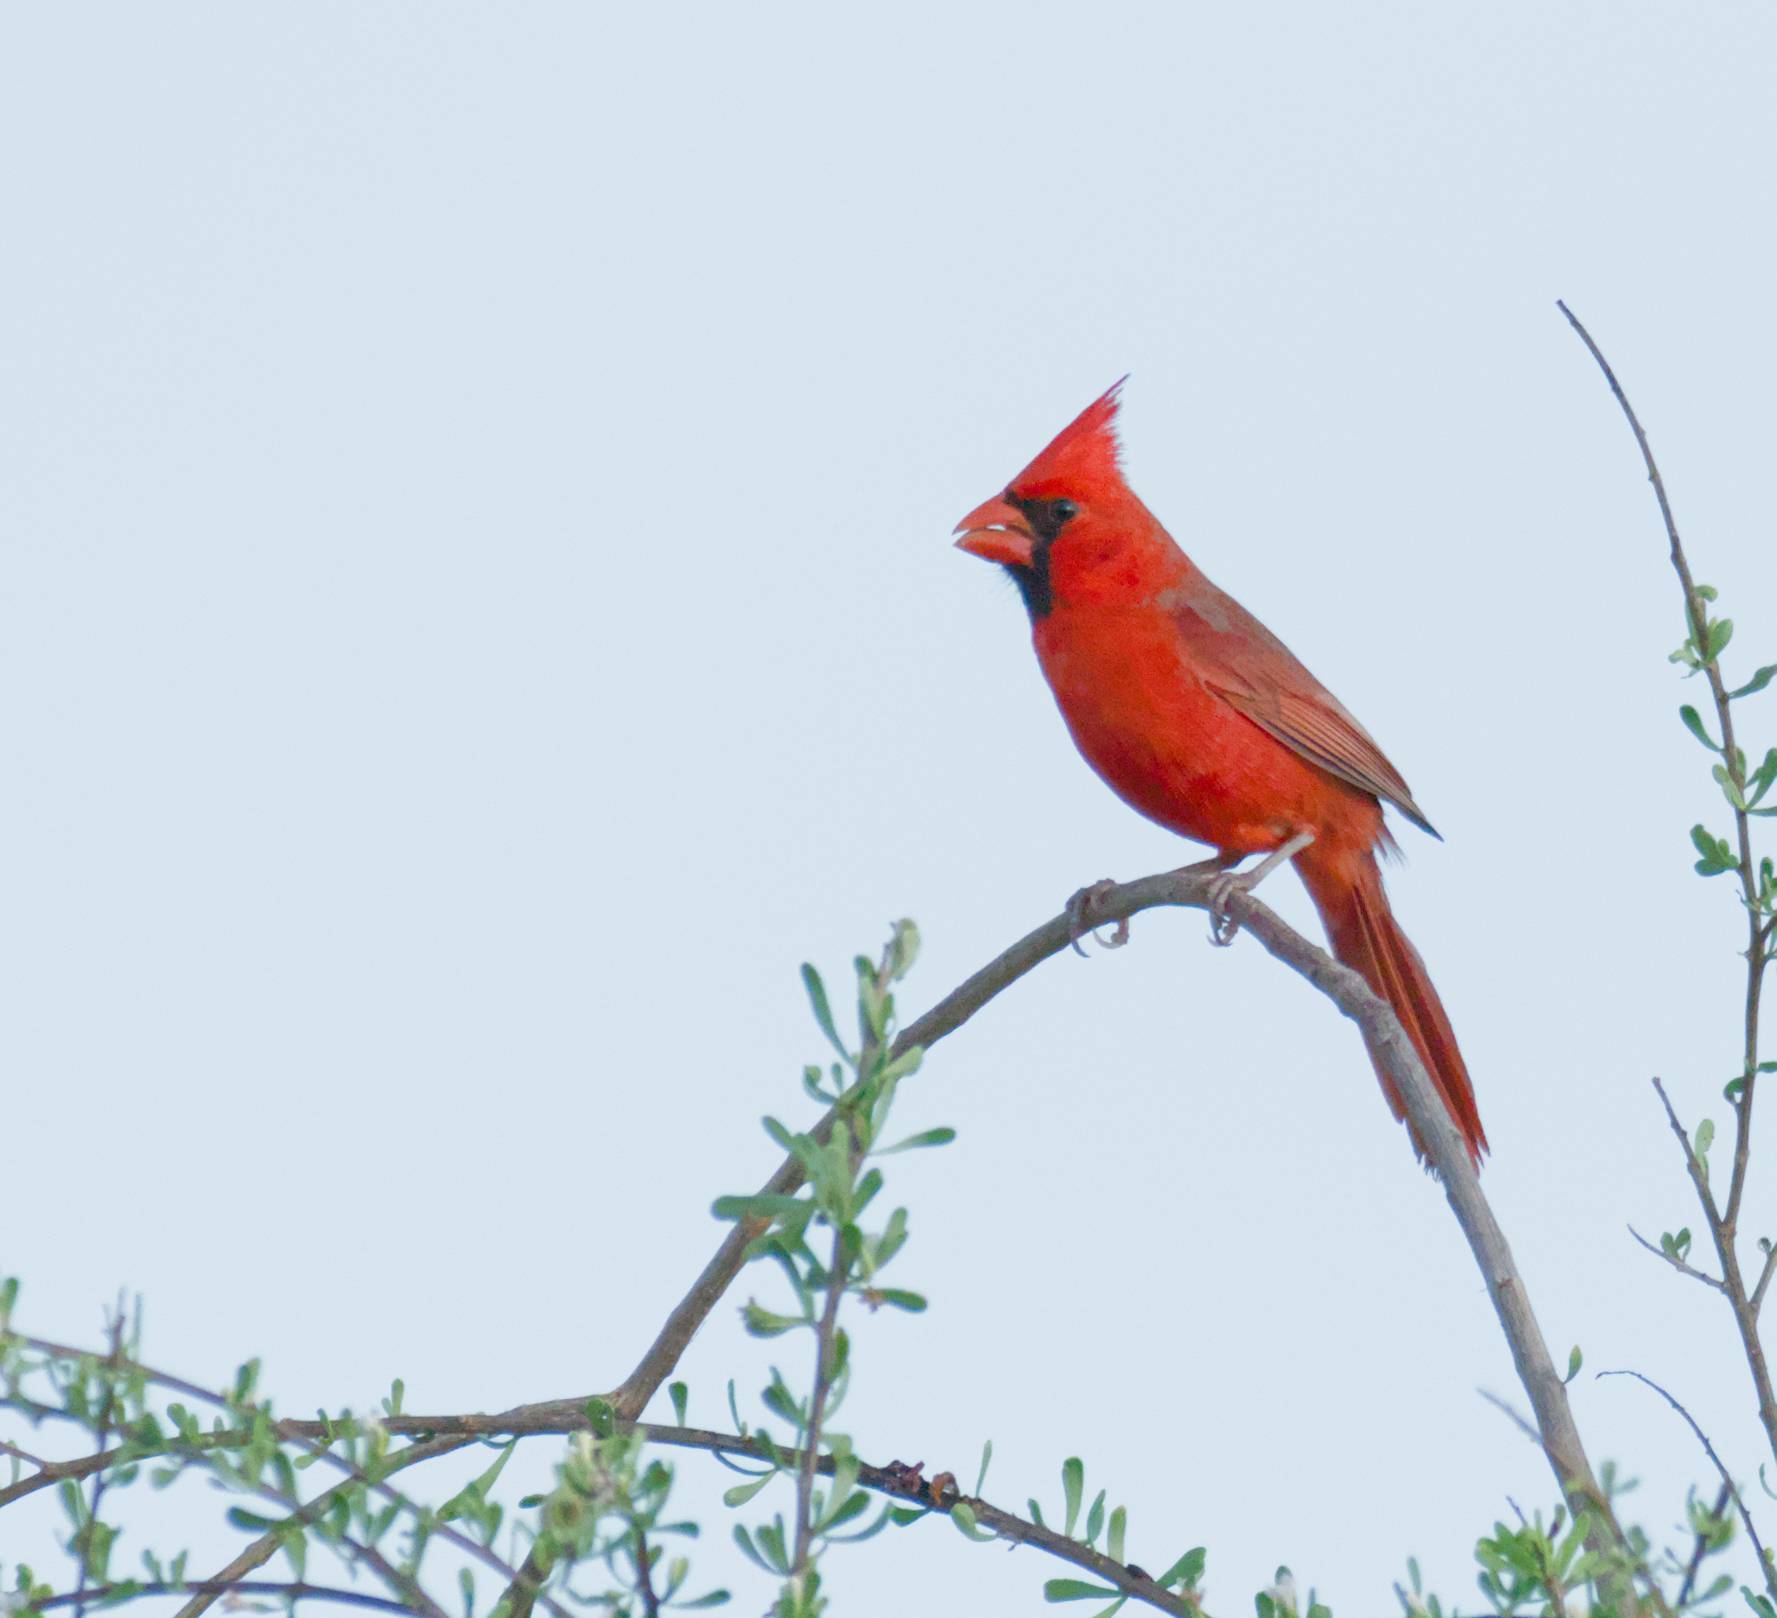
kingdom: Animalia
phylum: Chordata
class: Aves
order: Passeriformes
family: Cardinalidae
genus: Cardinalis
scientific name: Cardinalis cardinalis
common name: Northern cardinal
